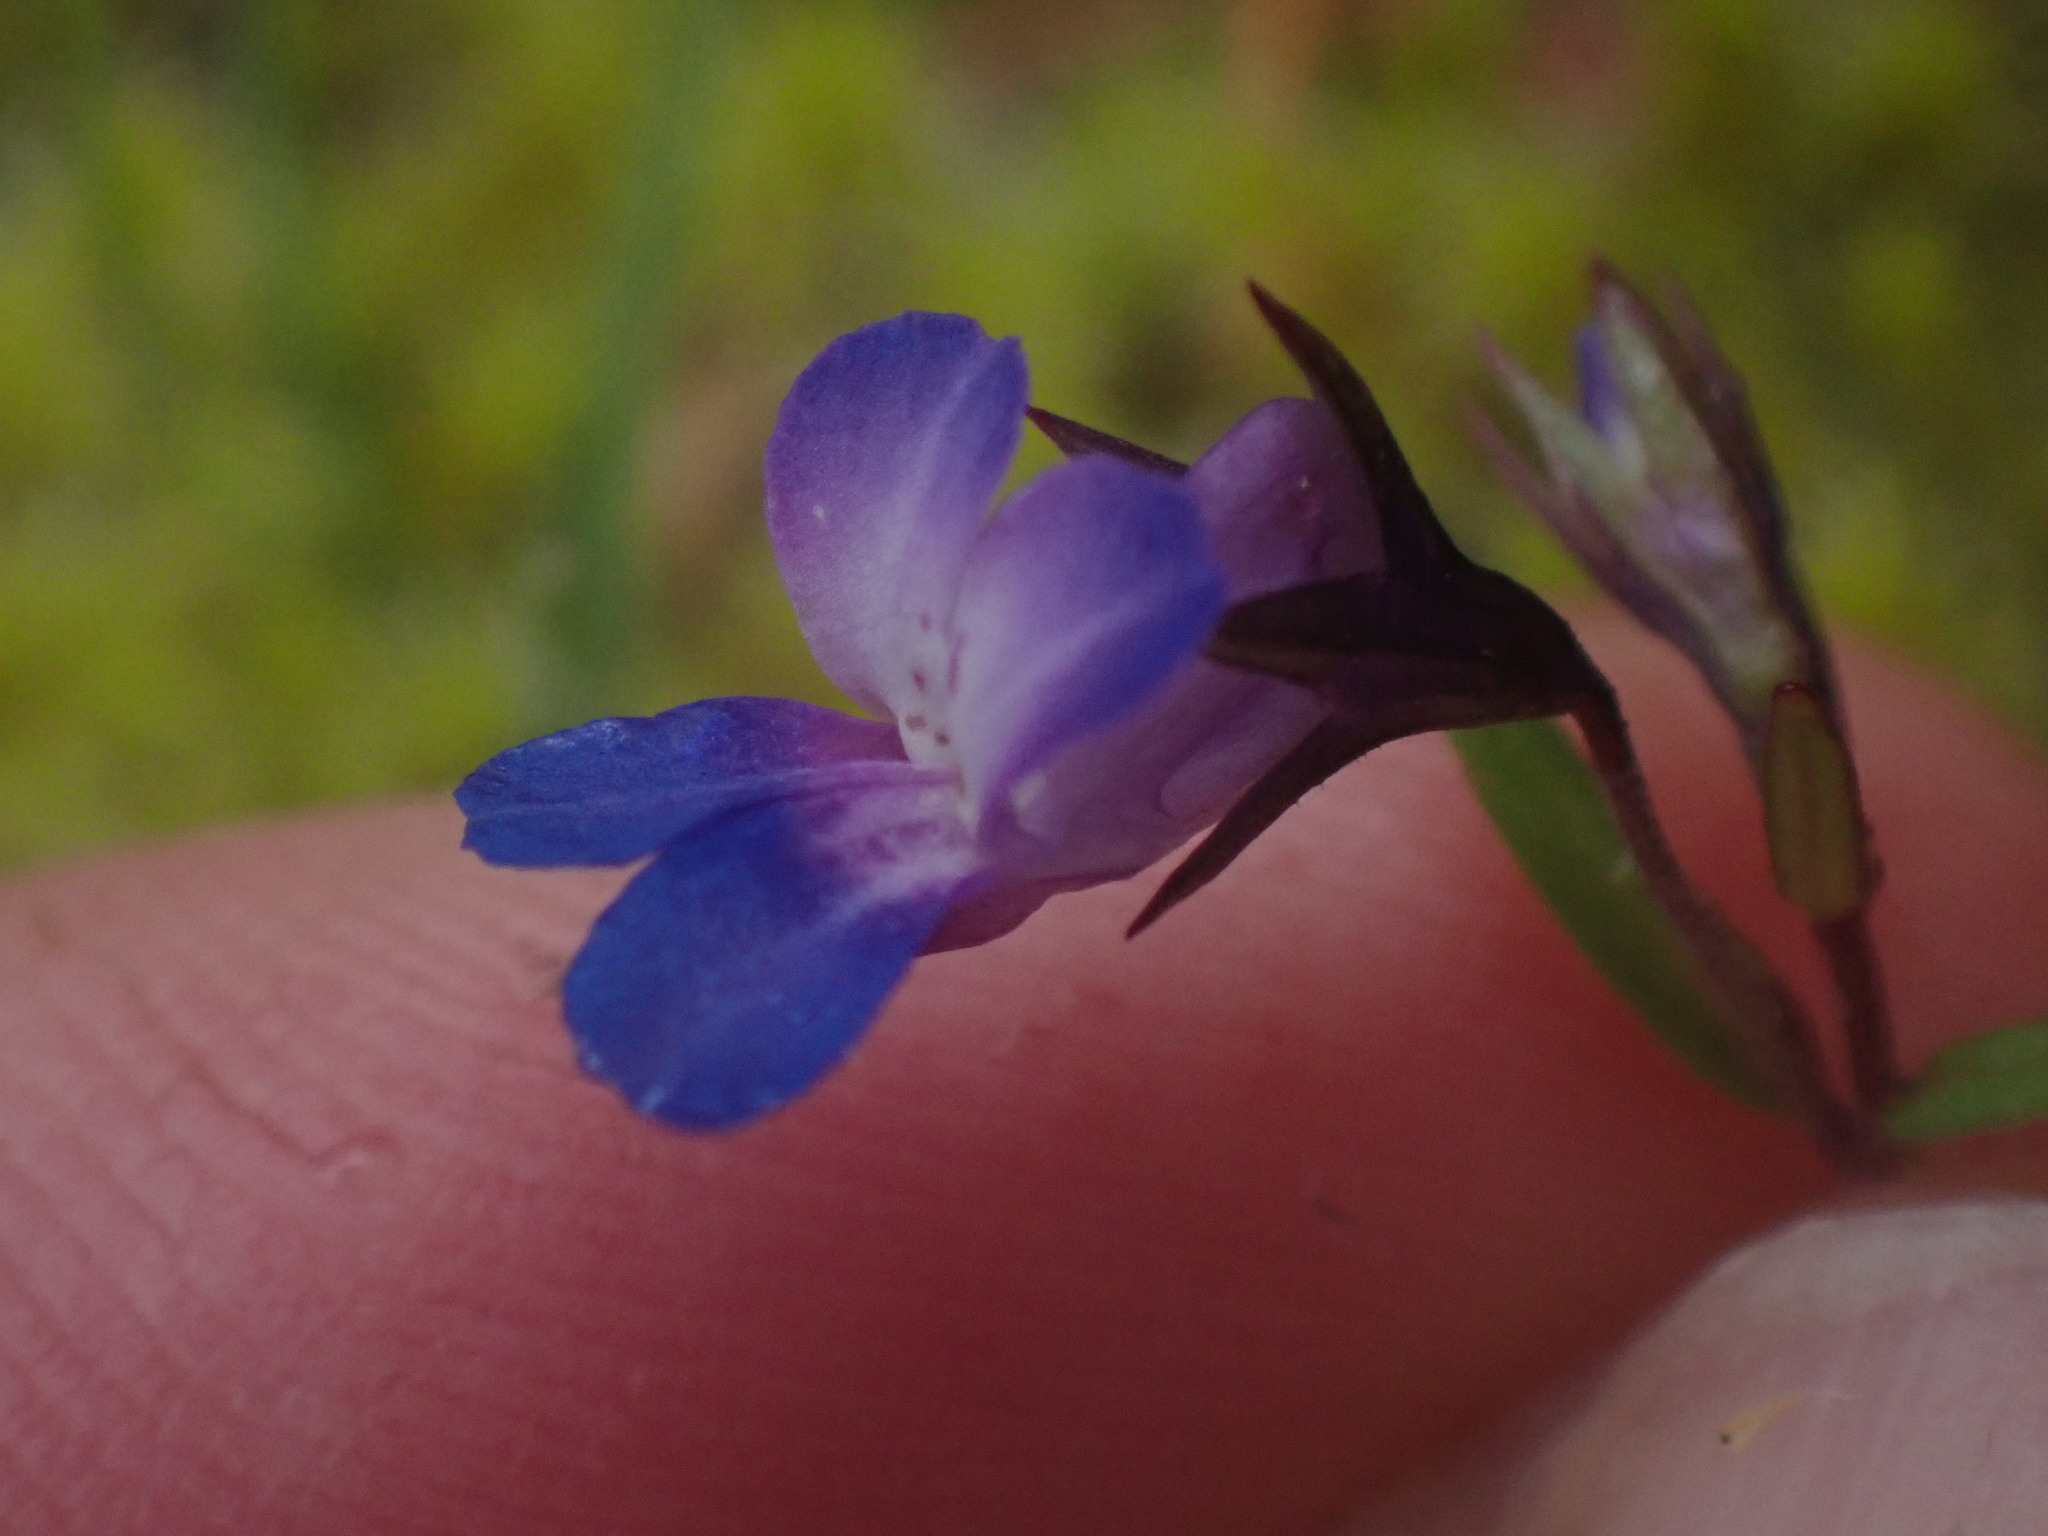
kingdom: Plantae
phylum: Tracheophyta
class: Magnoliopsida
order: Lamiales
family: Plantaginaceae
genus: Collinsia
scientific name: Collinsia grandiflora
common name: Large-flower blue-eyed-mary
